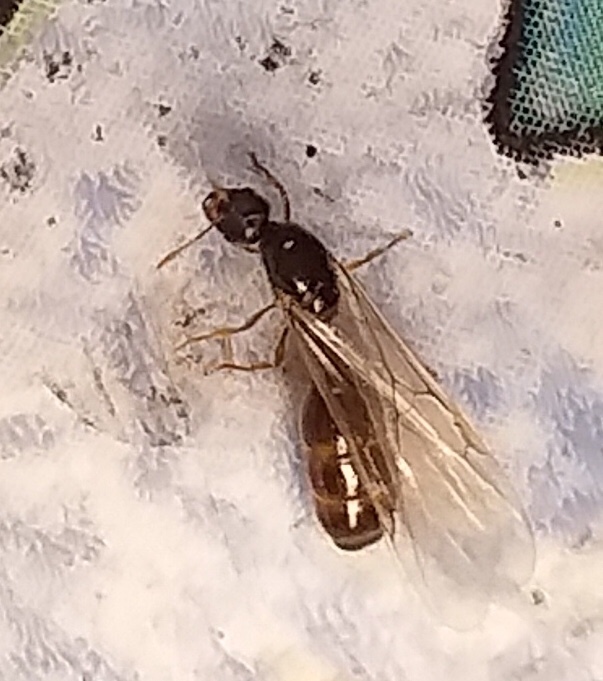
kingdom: Animalia
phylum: Arthropoda
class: Insecta
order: Hymenoptera
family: Formicidae
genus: Solenopsis
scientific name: Solenopsis fugax
